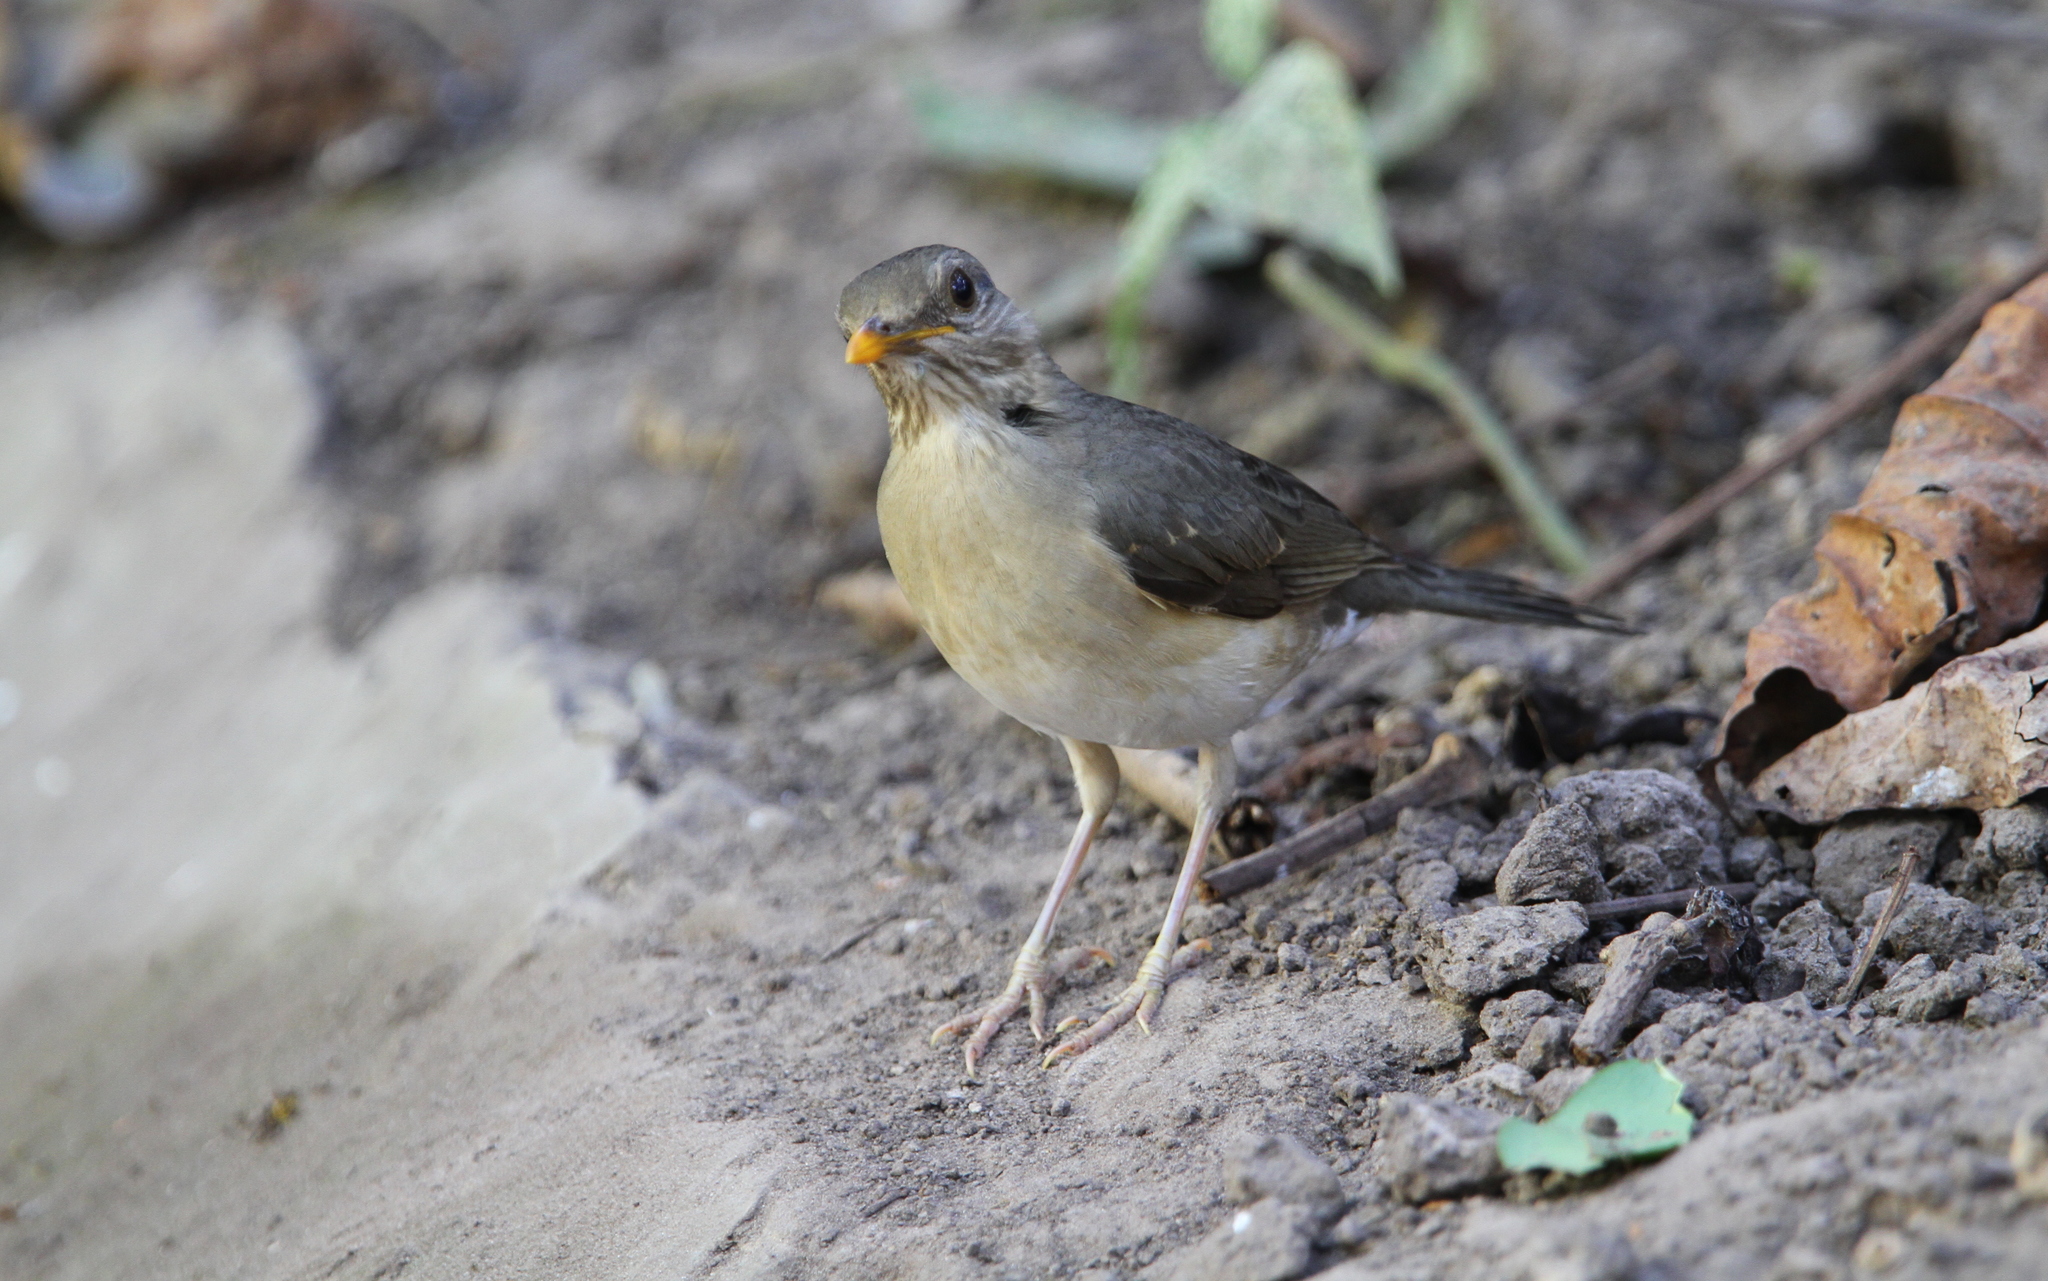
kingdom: Animalia
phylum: Chordata
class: Aves
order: Passeriformes
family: Turdidae
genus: Turdus
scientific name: Turdus pelios
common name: African thrush
